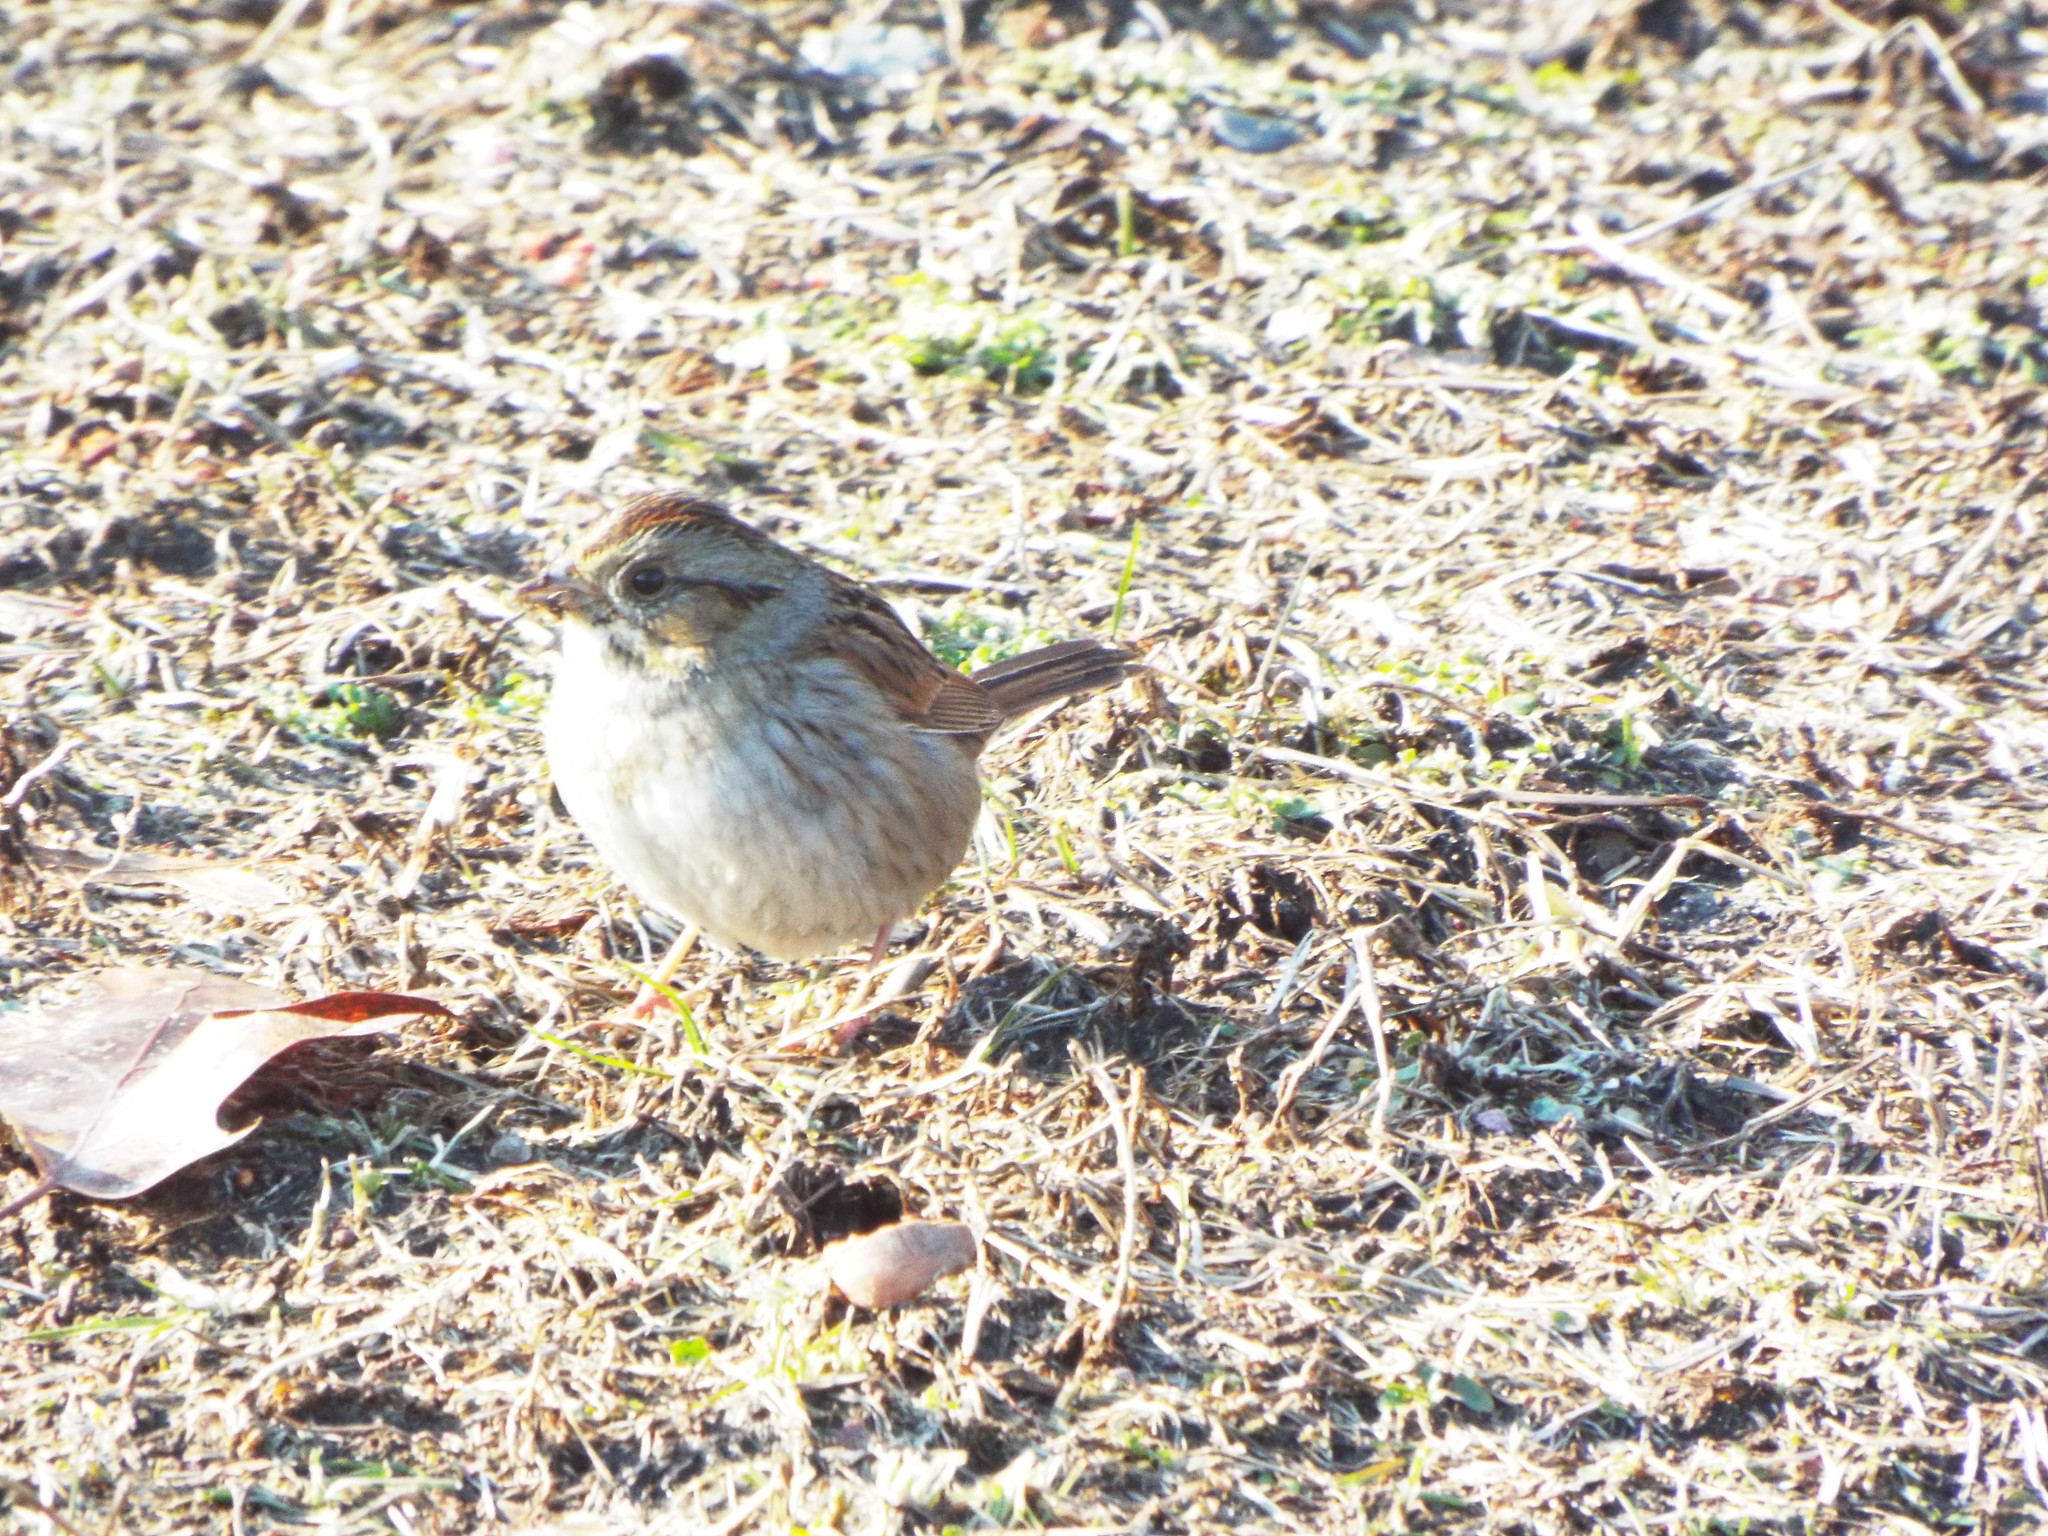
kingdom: Animalia
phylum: Chordata
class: Aves
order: Passeriformes
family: Passerellidae
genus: Melospiza
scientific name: Melospiza georgiana
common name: Swamp sparrow
